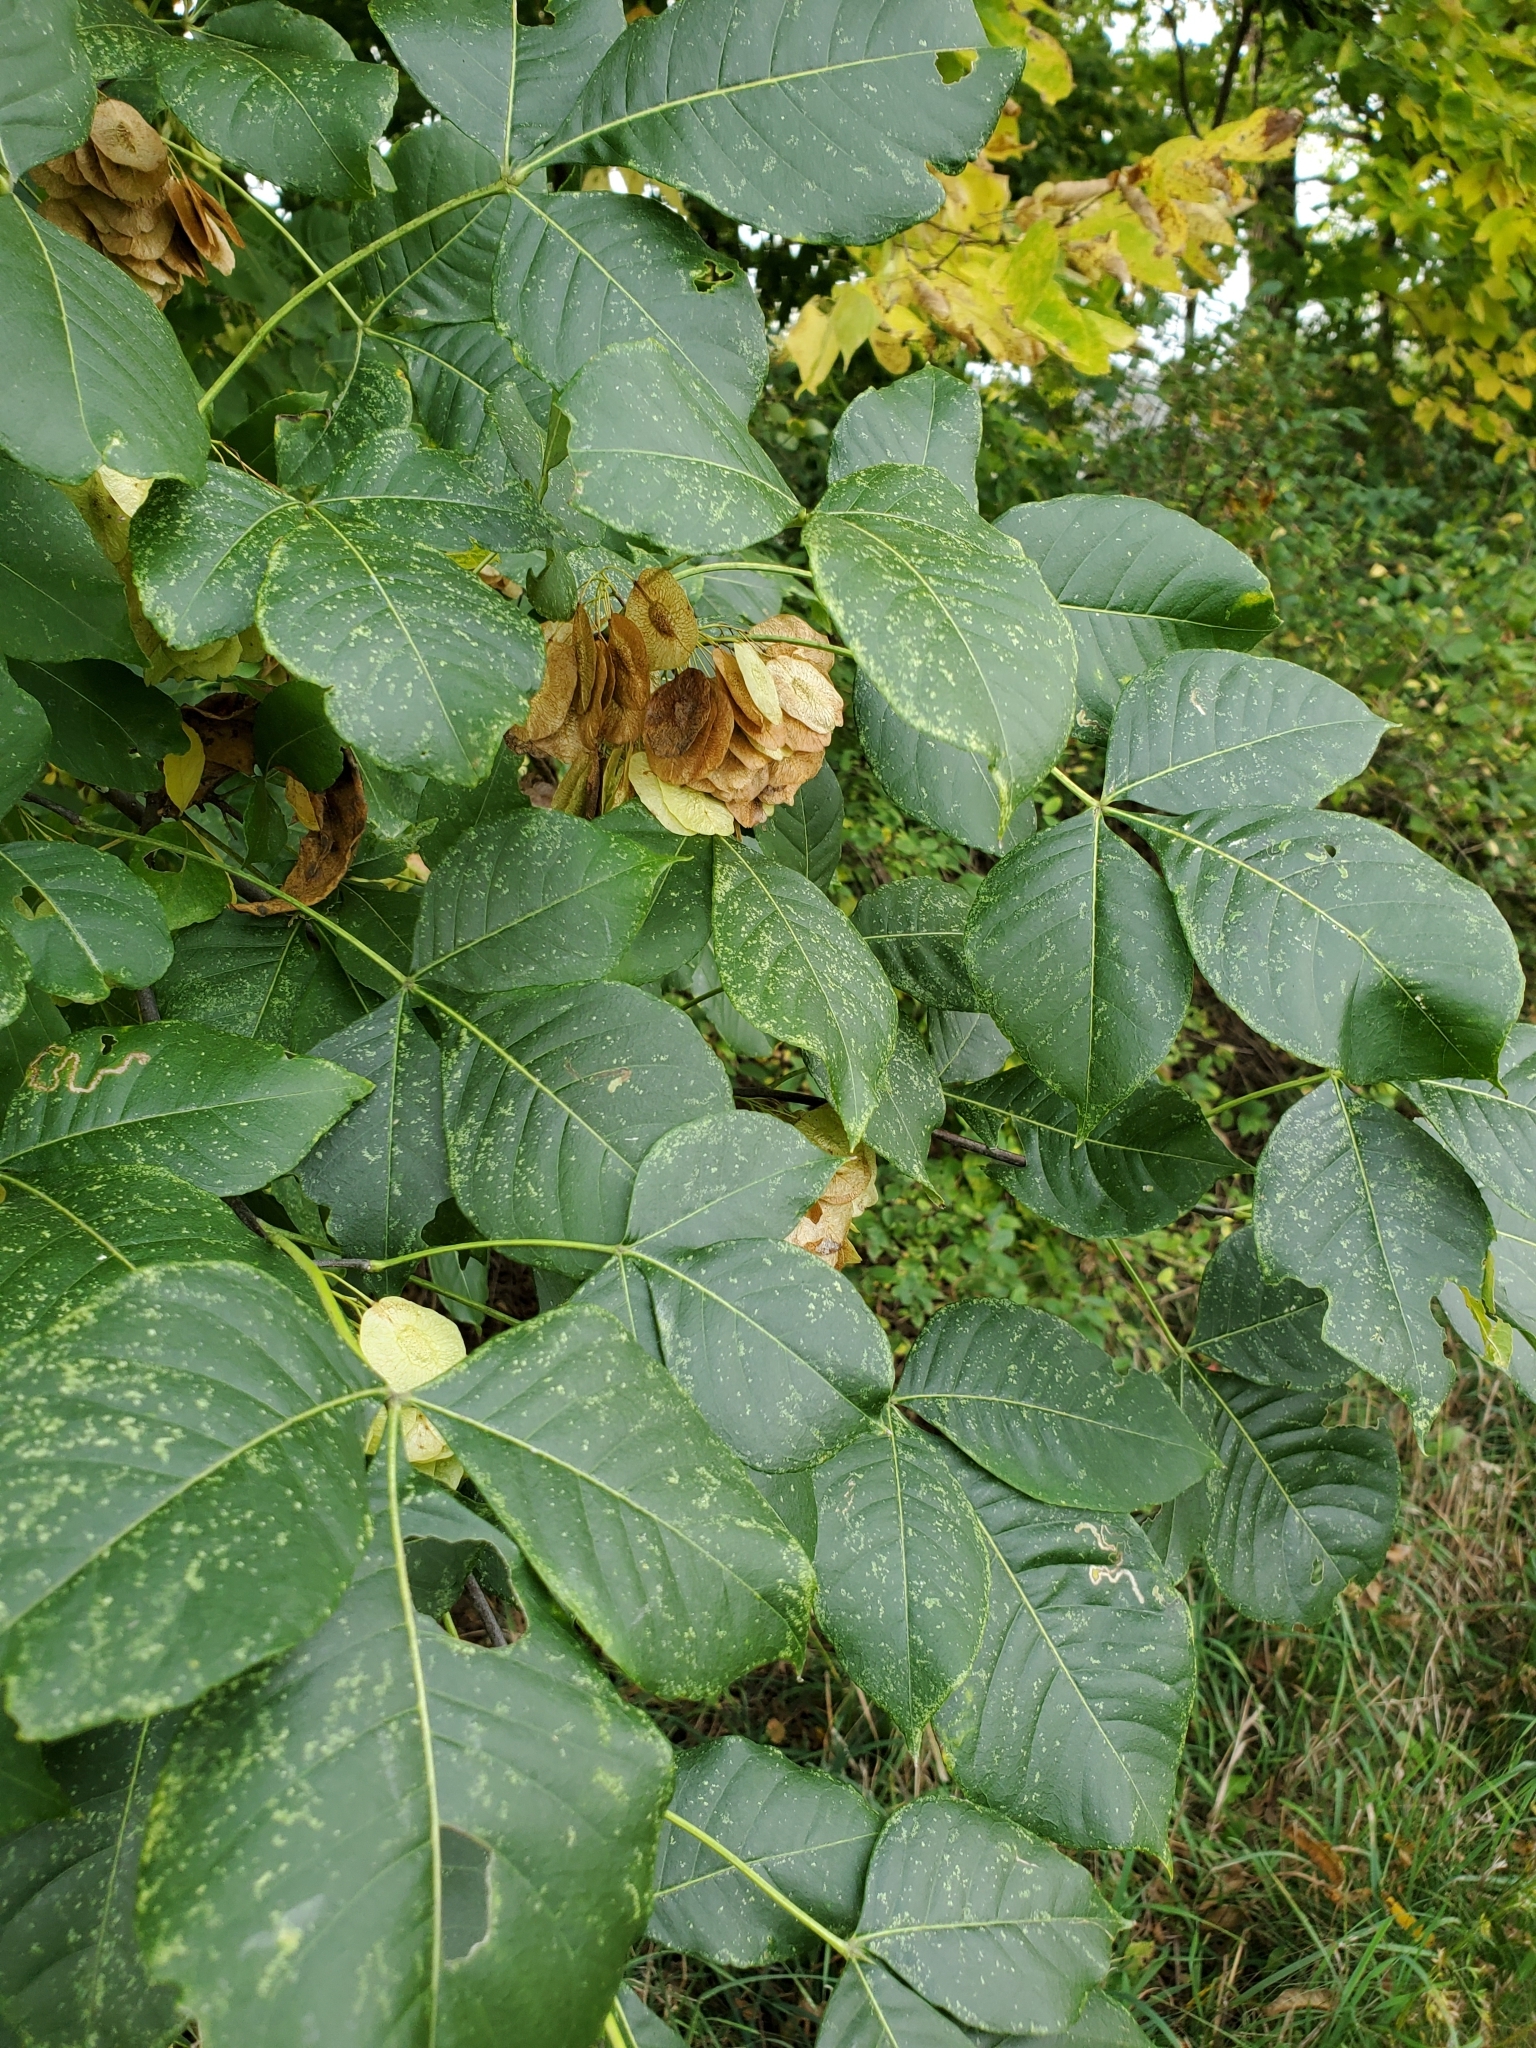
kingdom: Plantae
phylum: Tracheophyta
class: Magnoliopsida
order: Sapindales
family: Rutaceae
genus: Ptelea
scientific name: Ptelea trifoliata
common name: Common hop-tree
